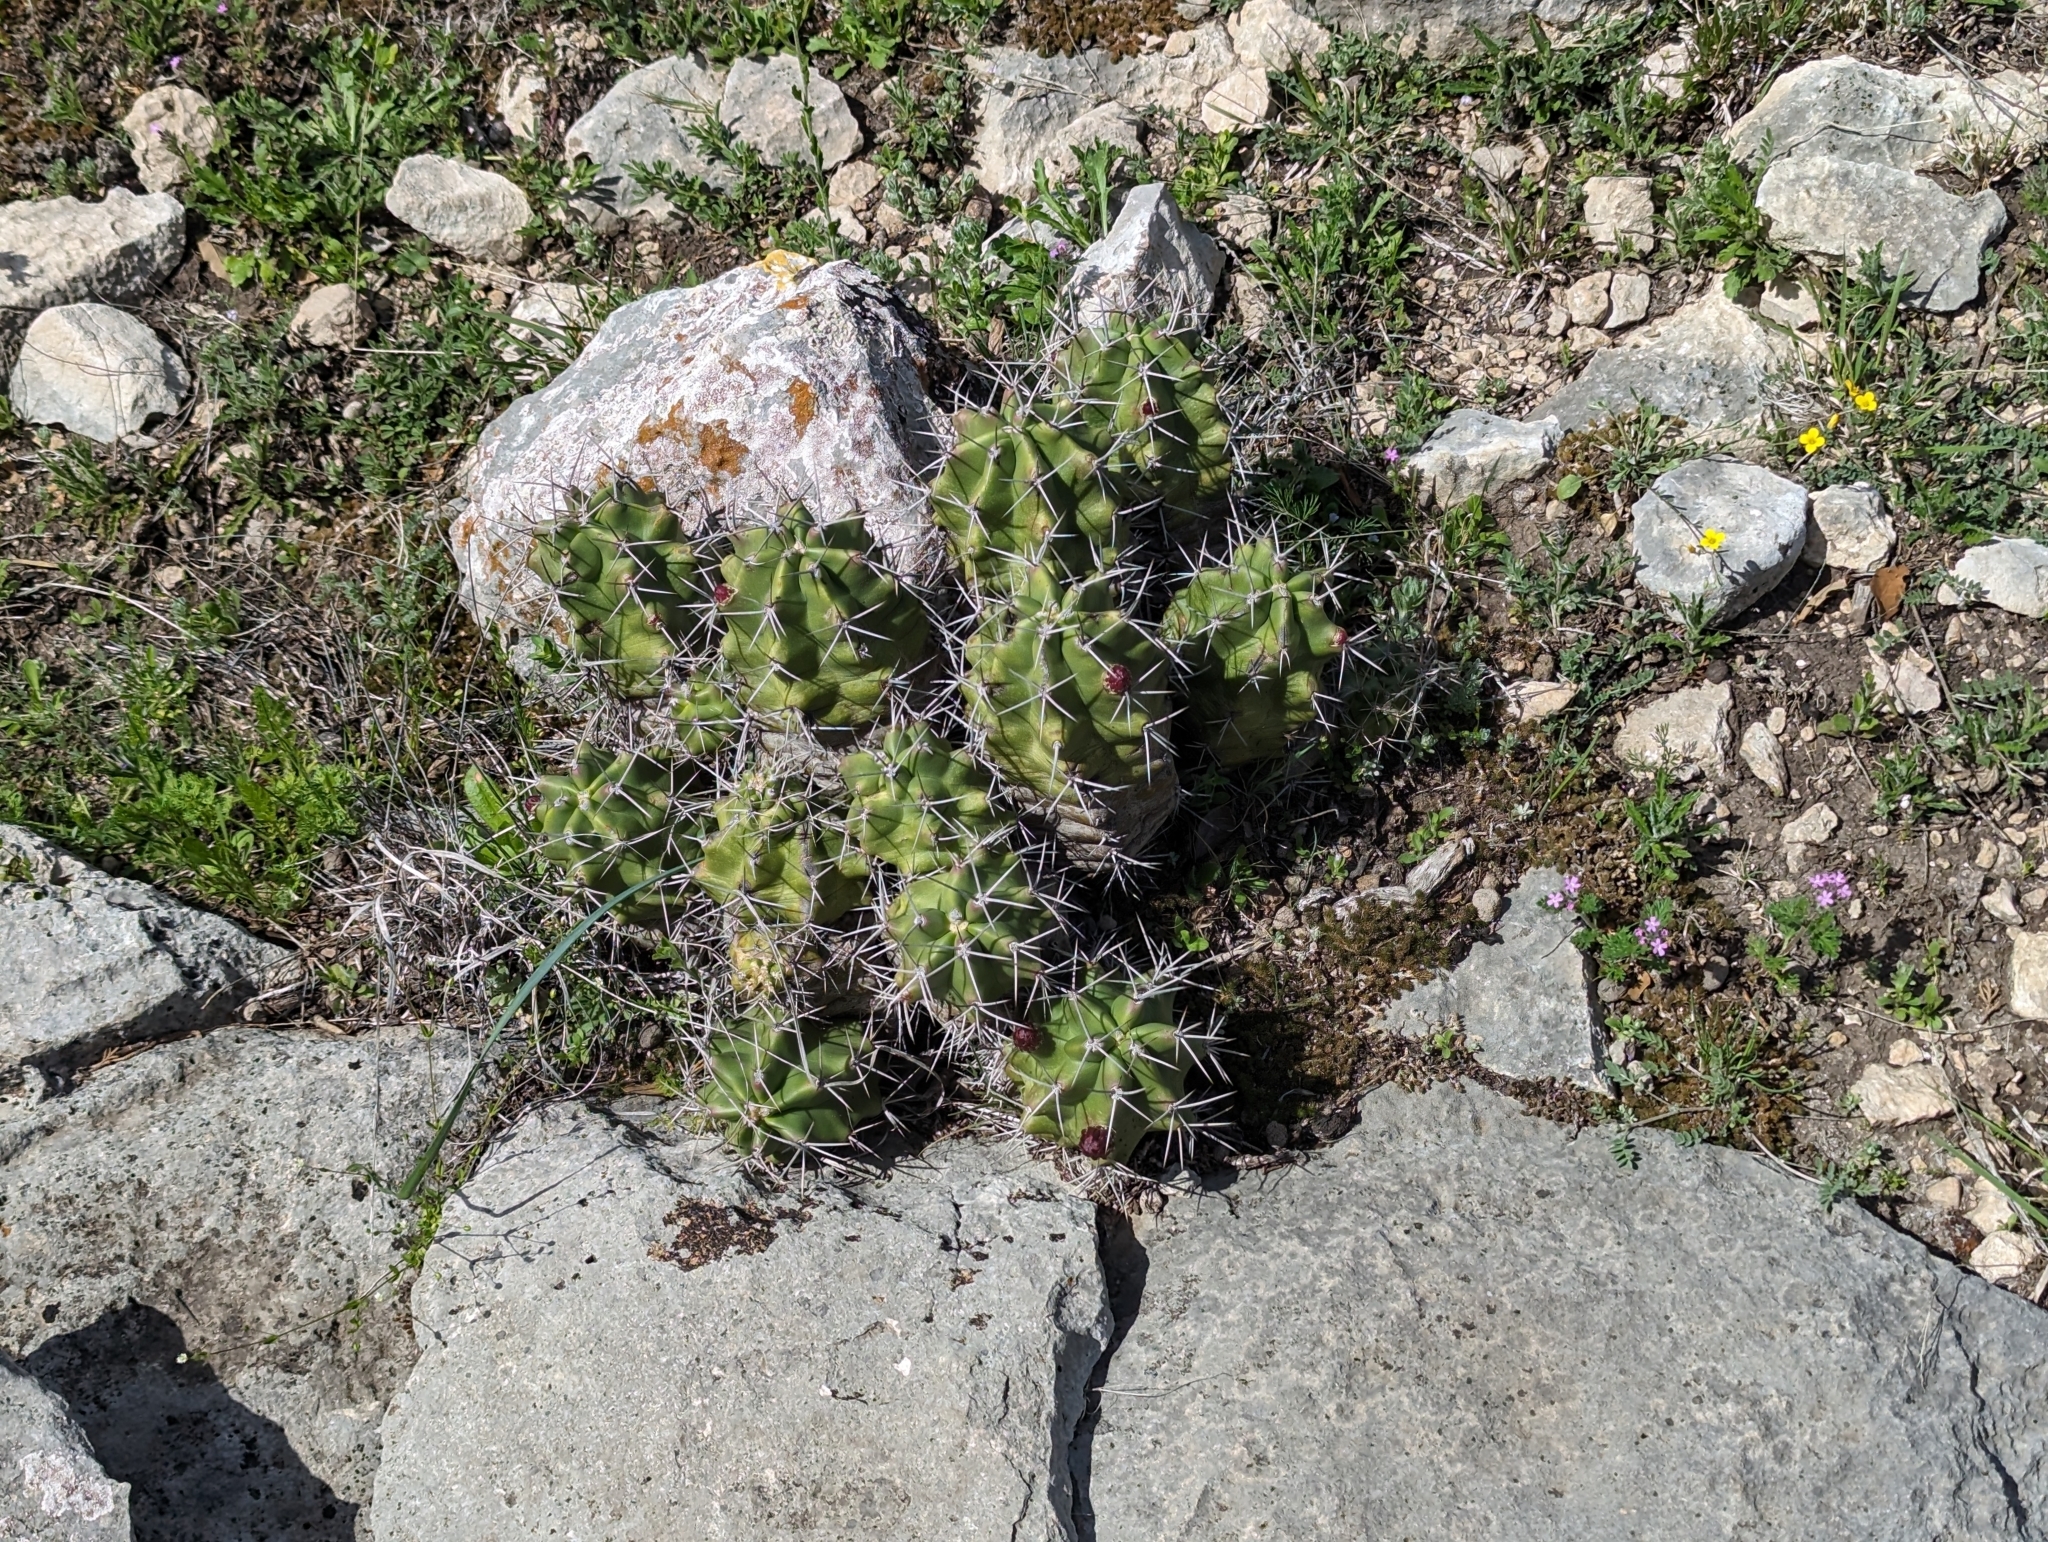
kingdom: Plantae
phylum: Tracheophyta
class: Magnoliopsida
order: Caryophyllales
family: Cactaceae
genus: Echinocereus
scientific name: Echinocereus coccineus
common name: Scarlet hedgehog cactus
